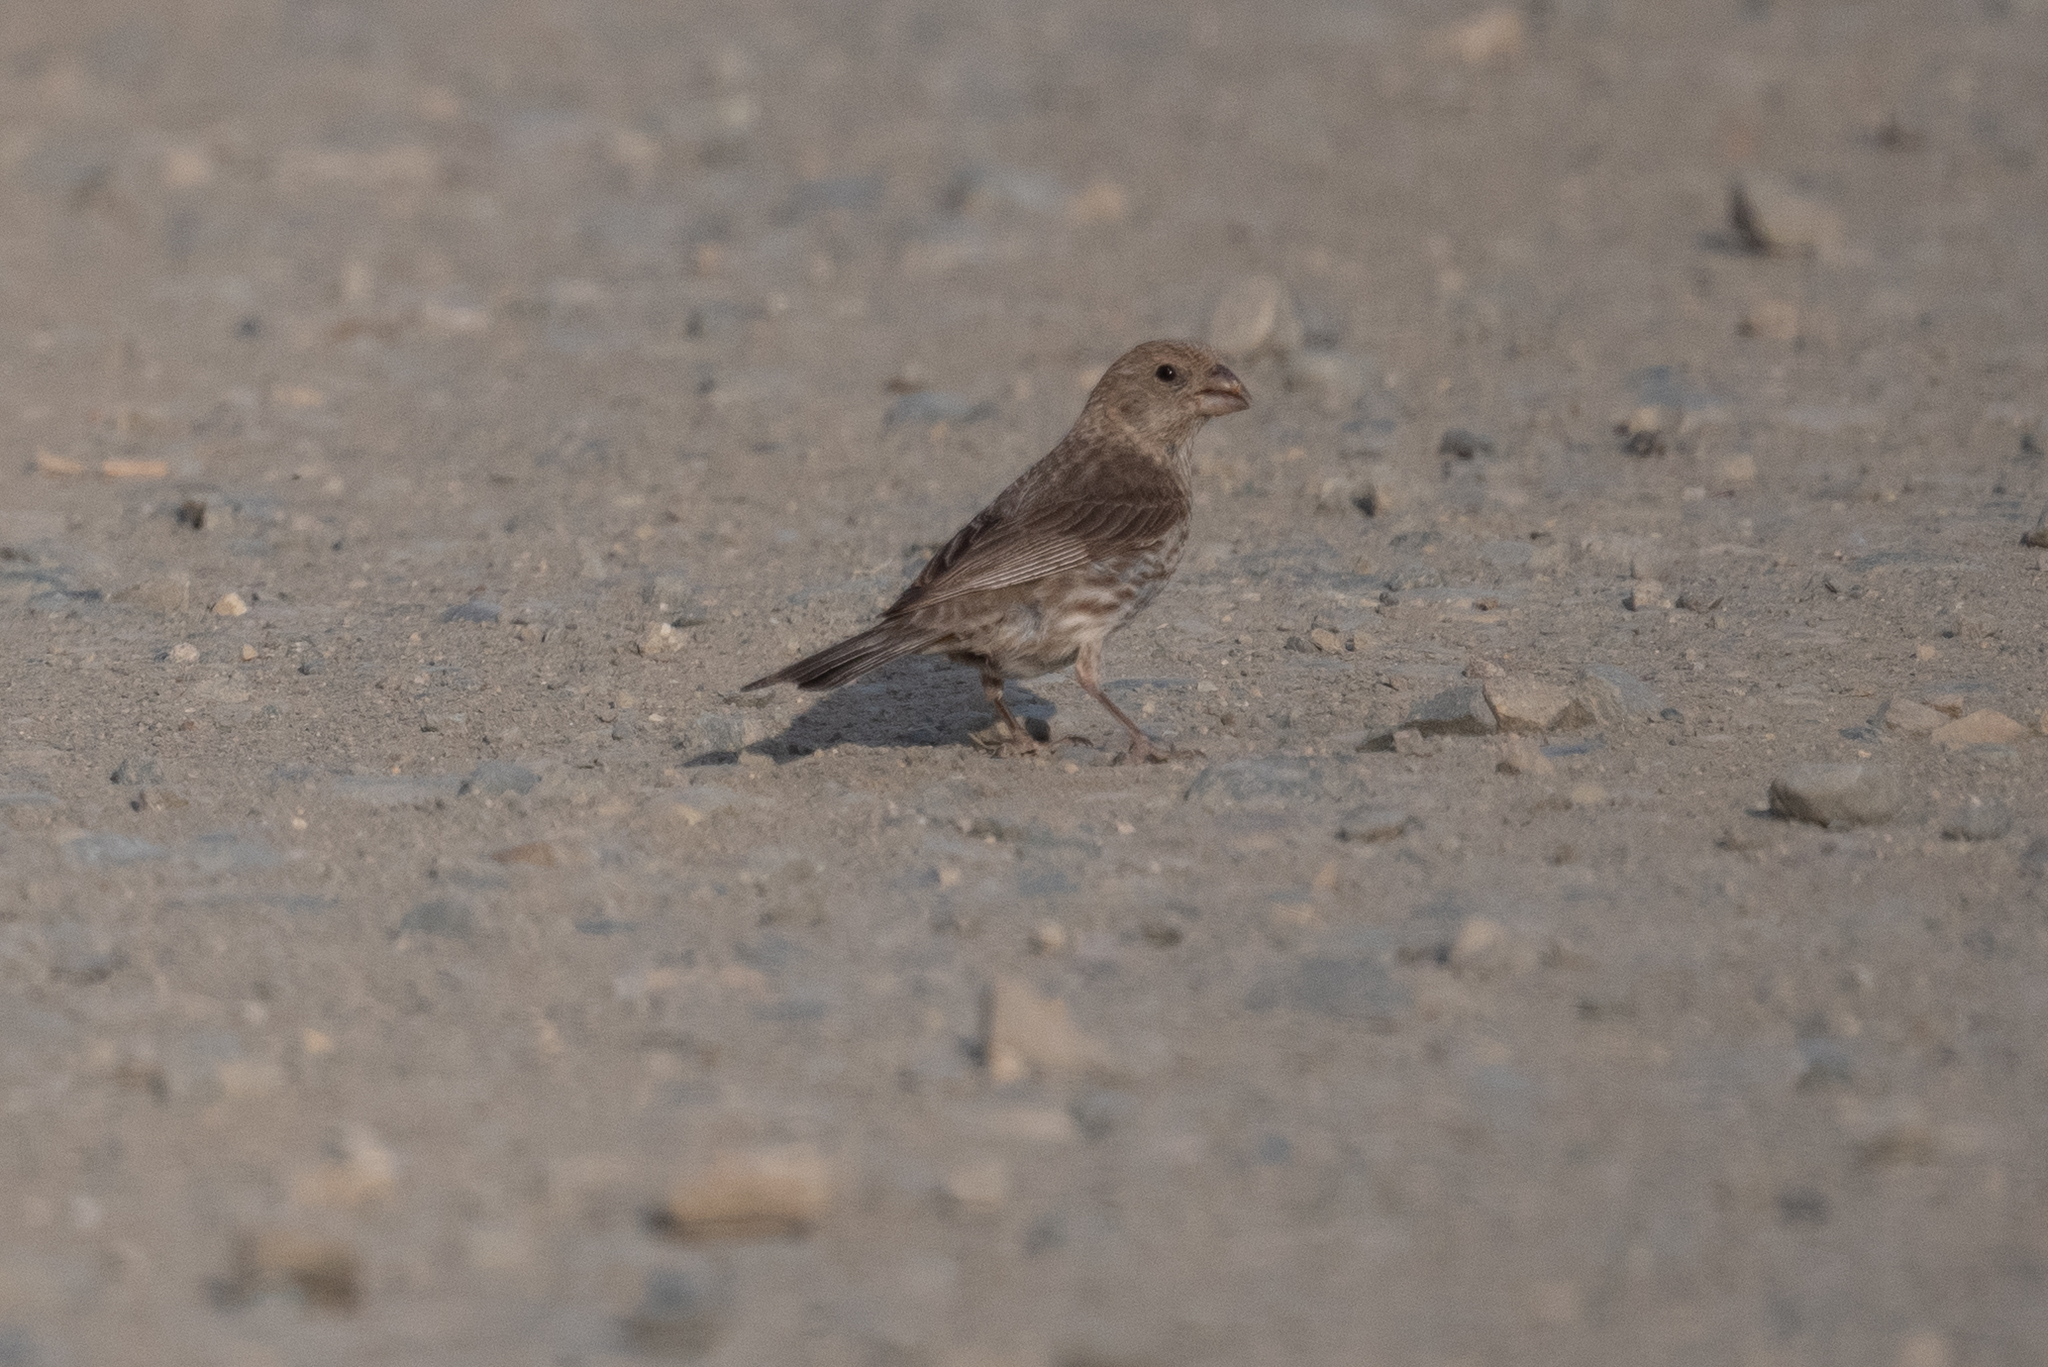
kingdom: Animalia
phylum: Chordata
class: Aves
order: Passeriformes
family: Fringillidae
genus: Haemorhous
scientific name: Haemorhous mexicanus
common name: House finch
